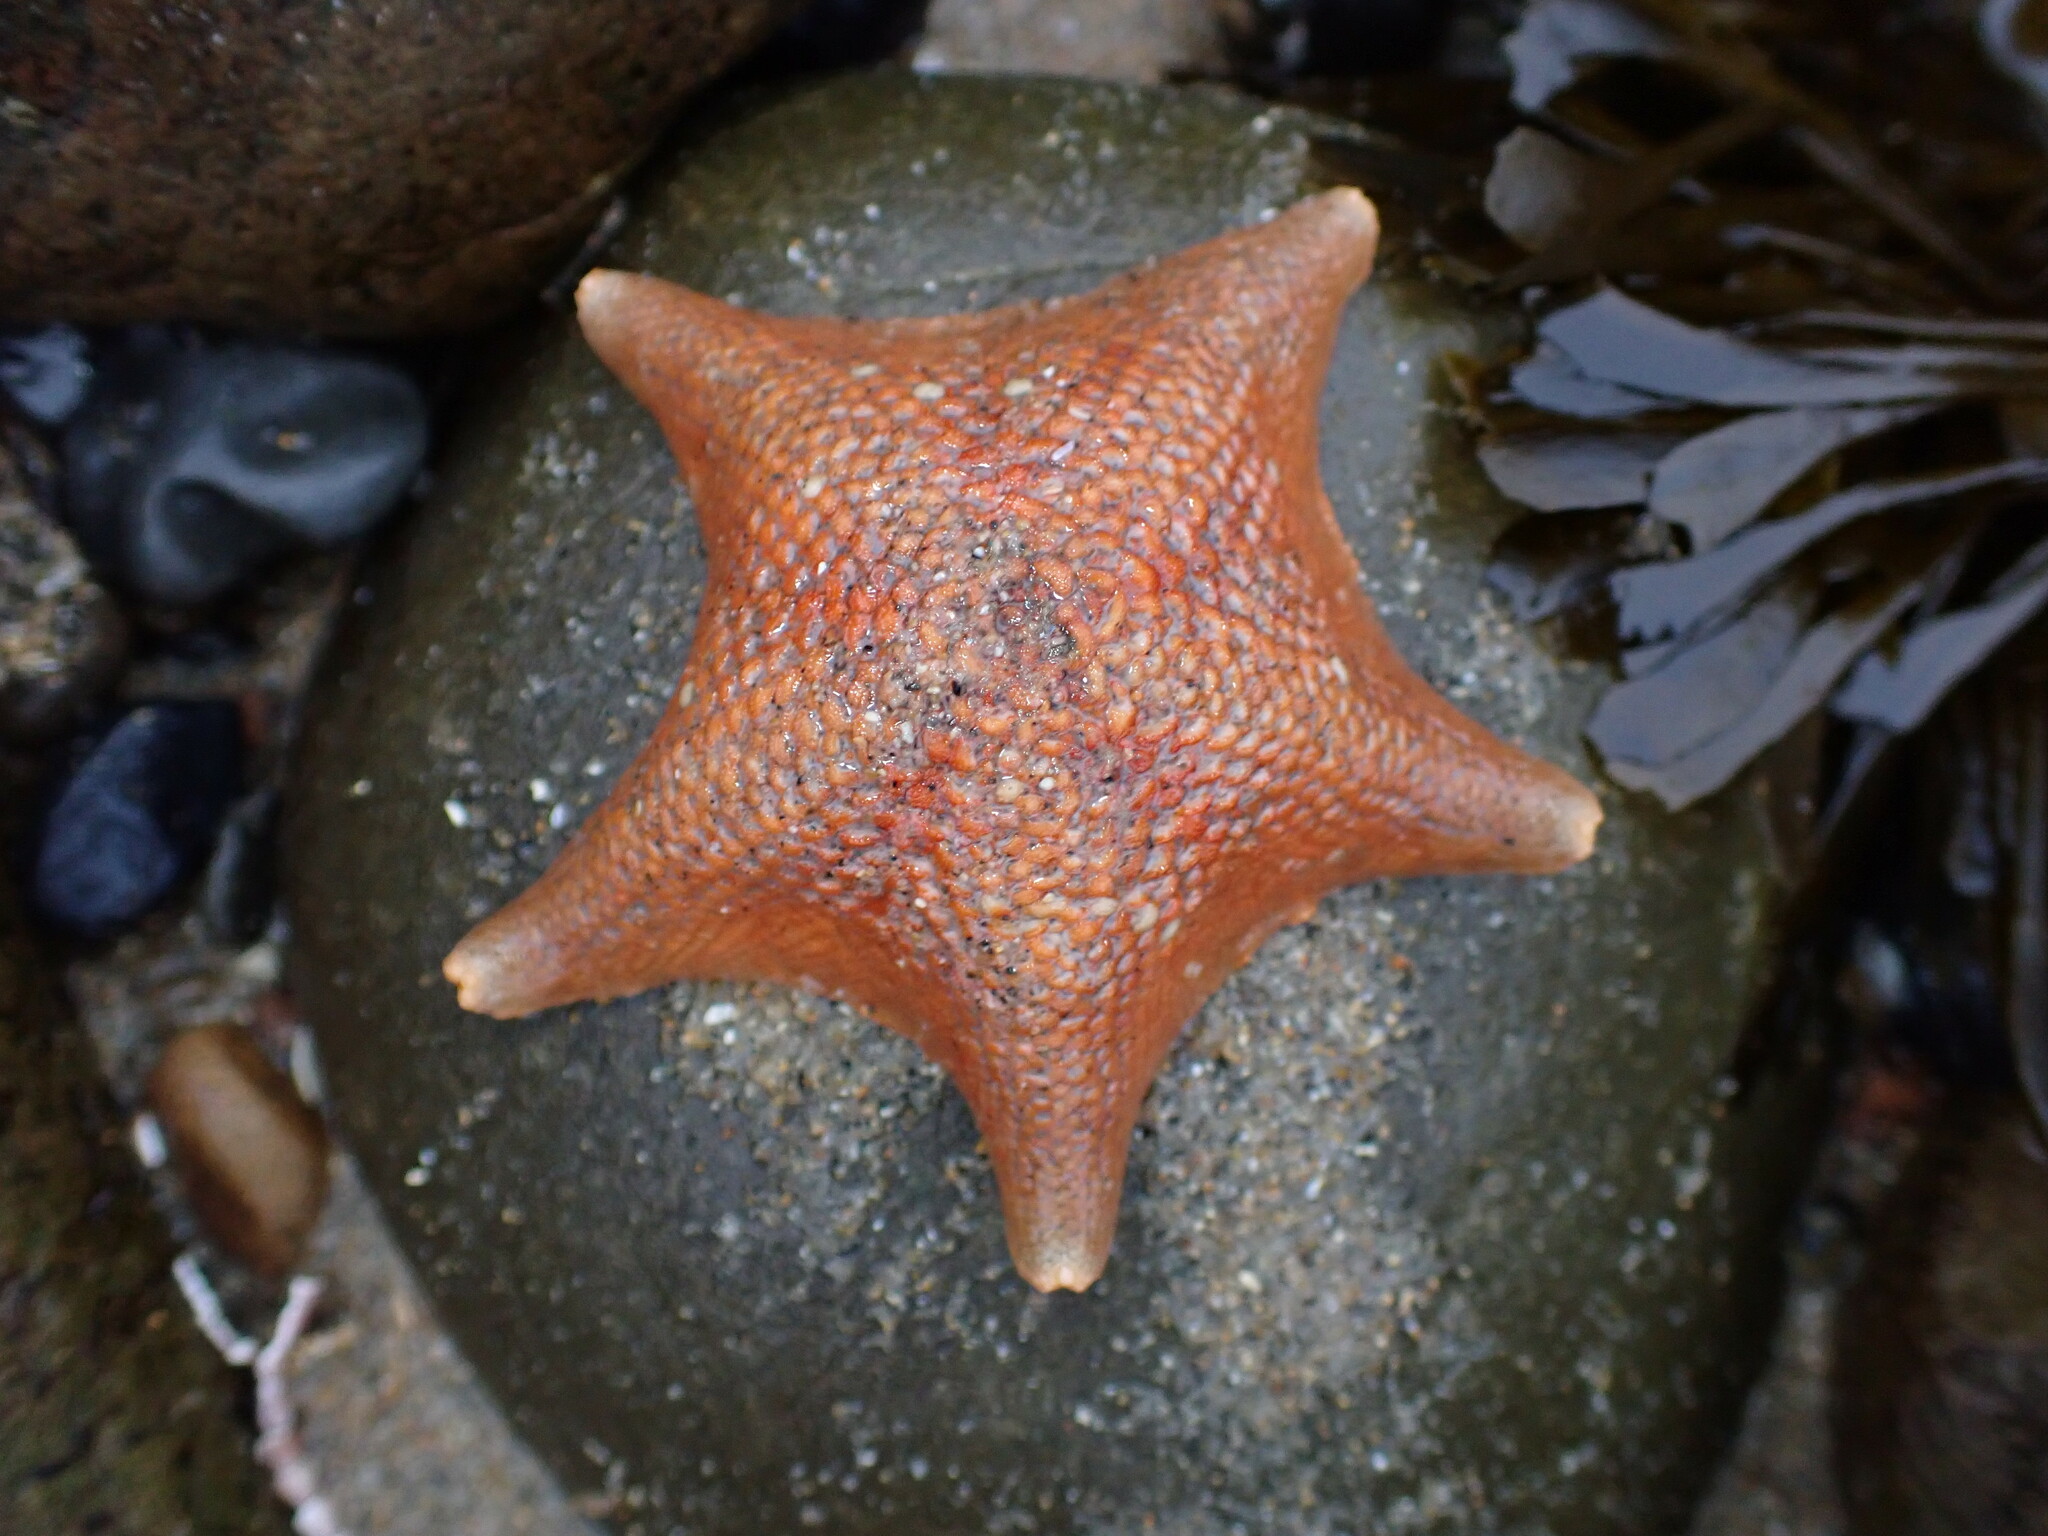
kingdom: Animalia
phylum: Echinodermata
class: Asteroidea
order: Valvatida
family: Asterinidae
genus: Patiria
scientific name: Patiria miniata
